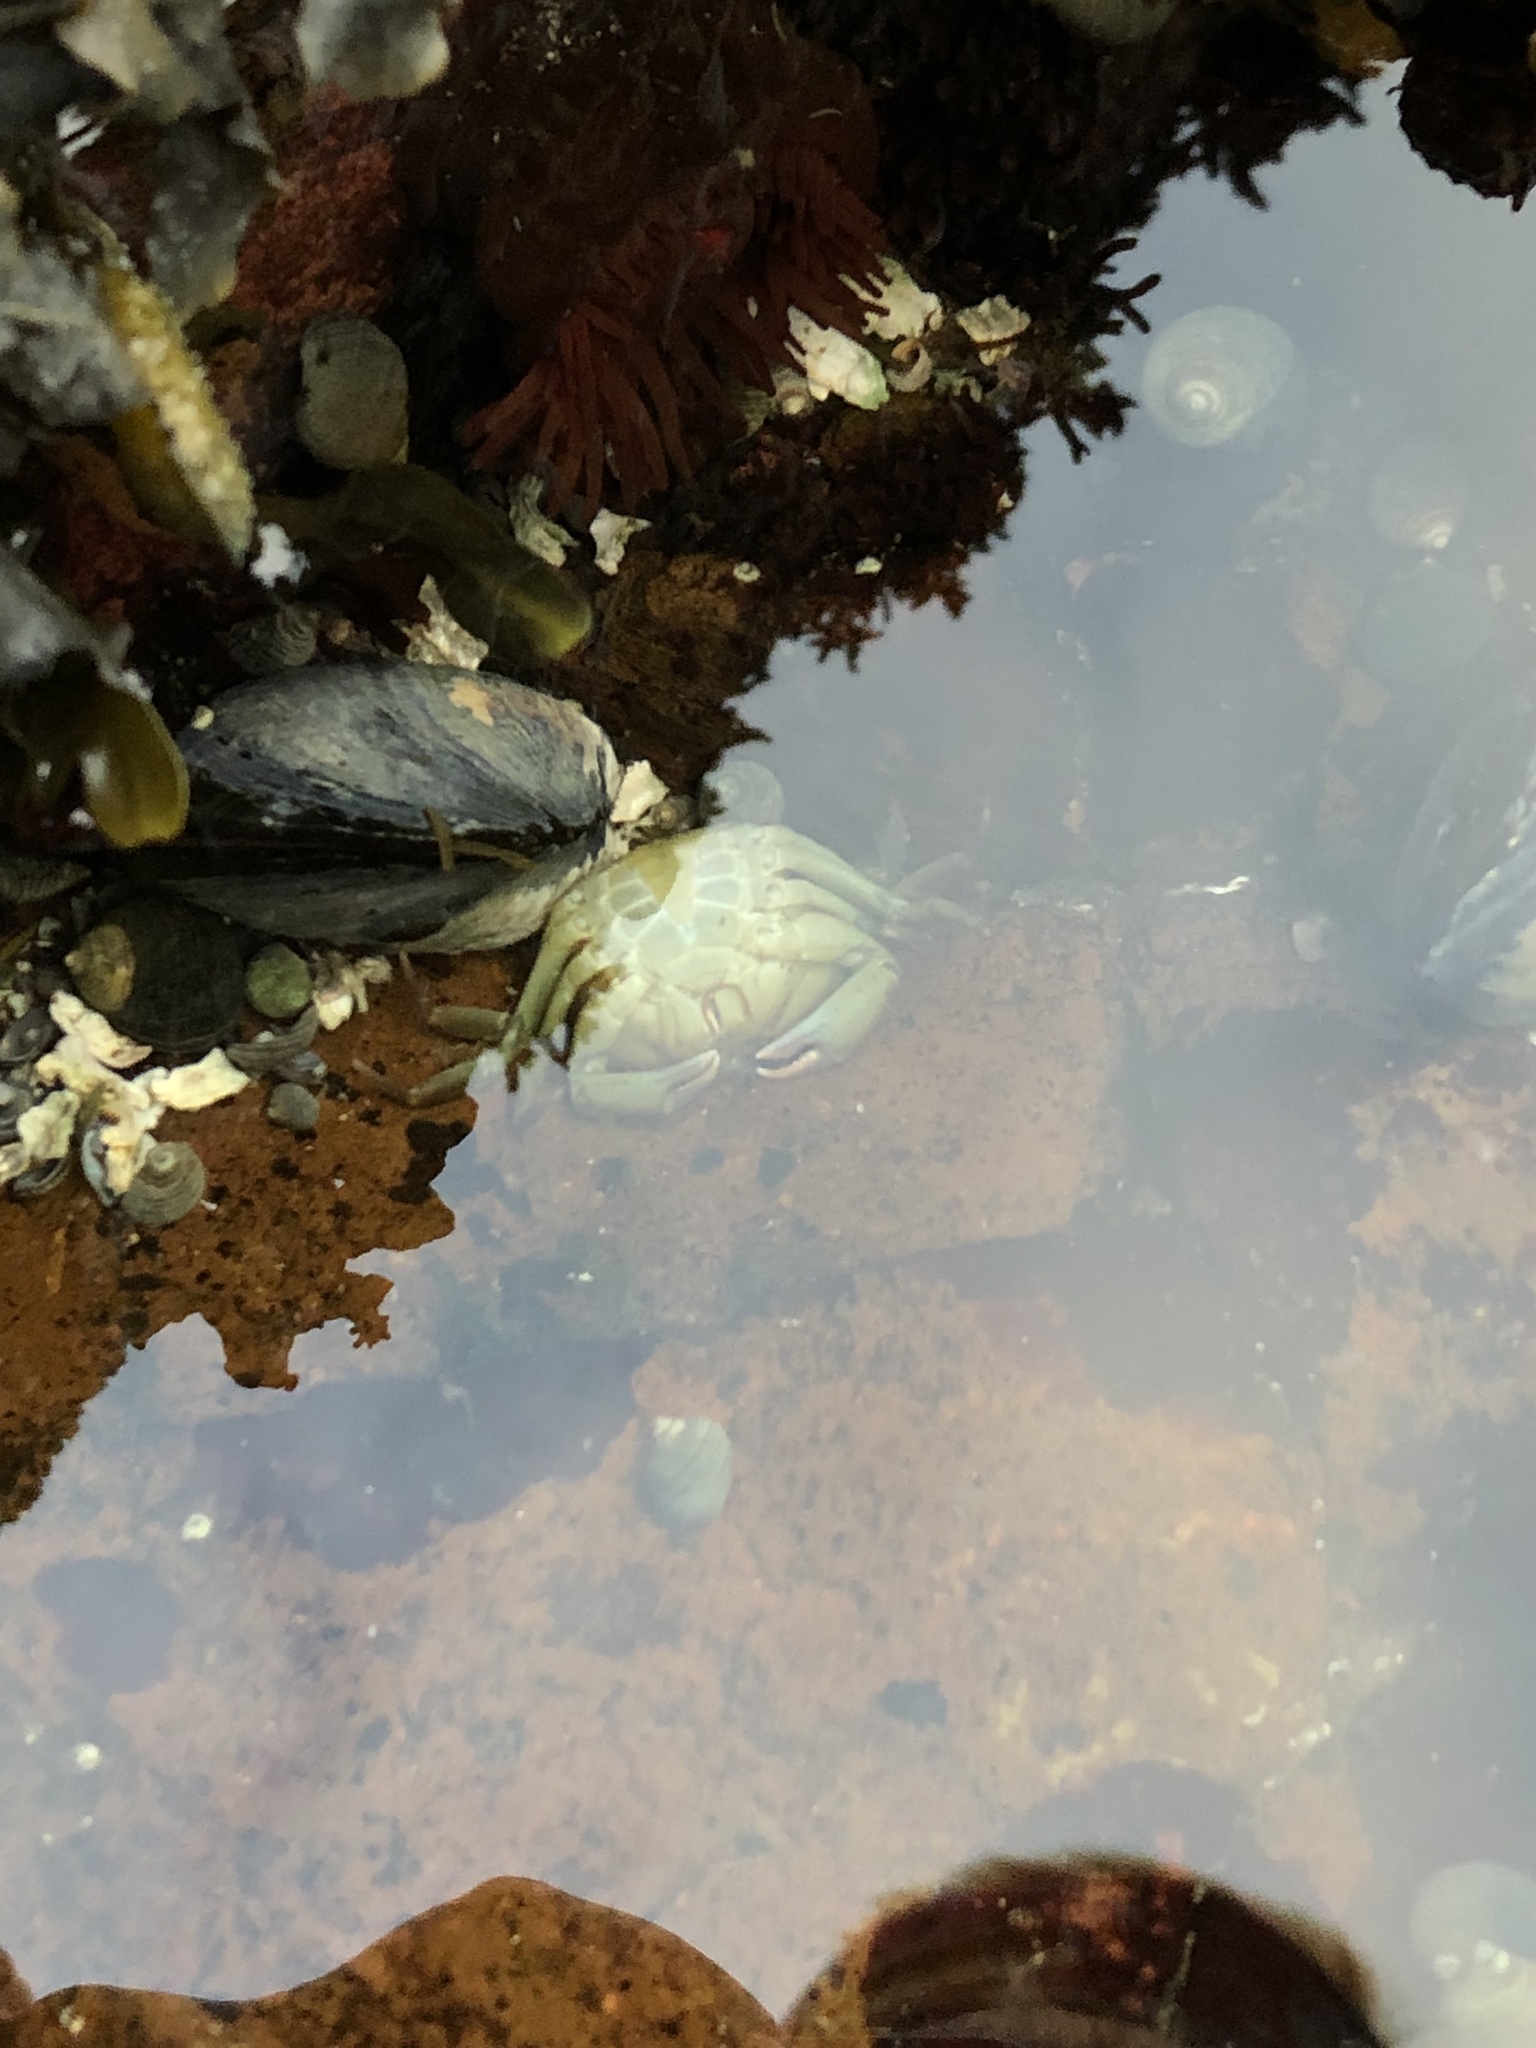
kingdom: Animalia
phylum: Arthropoda
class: Malacostraca
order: Decapoda
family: Carcinidae
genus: Carcinus
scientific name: Carcinus maenas
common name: European green crab
